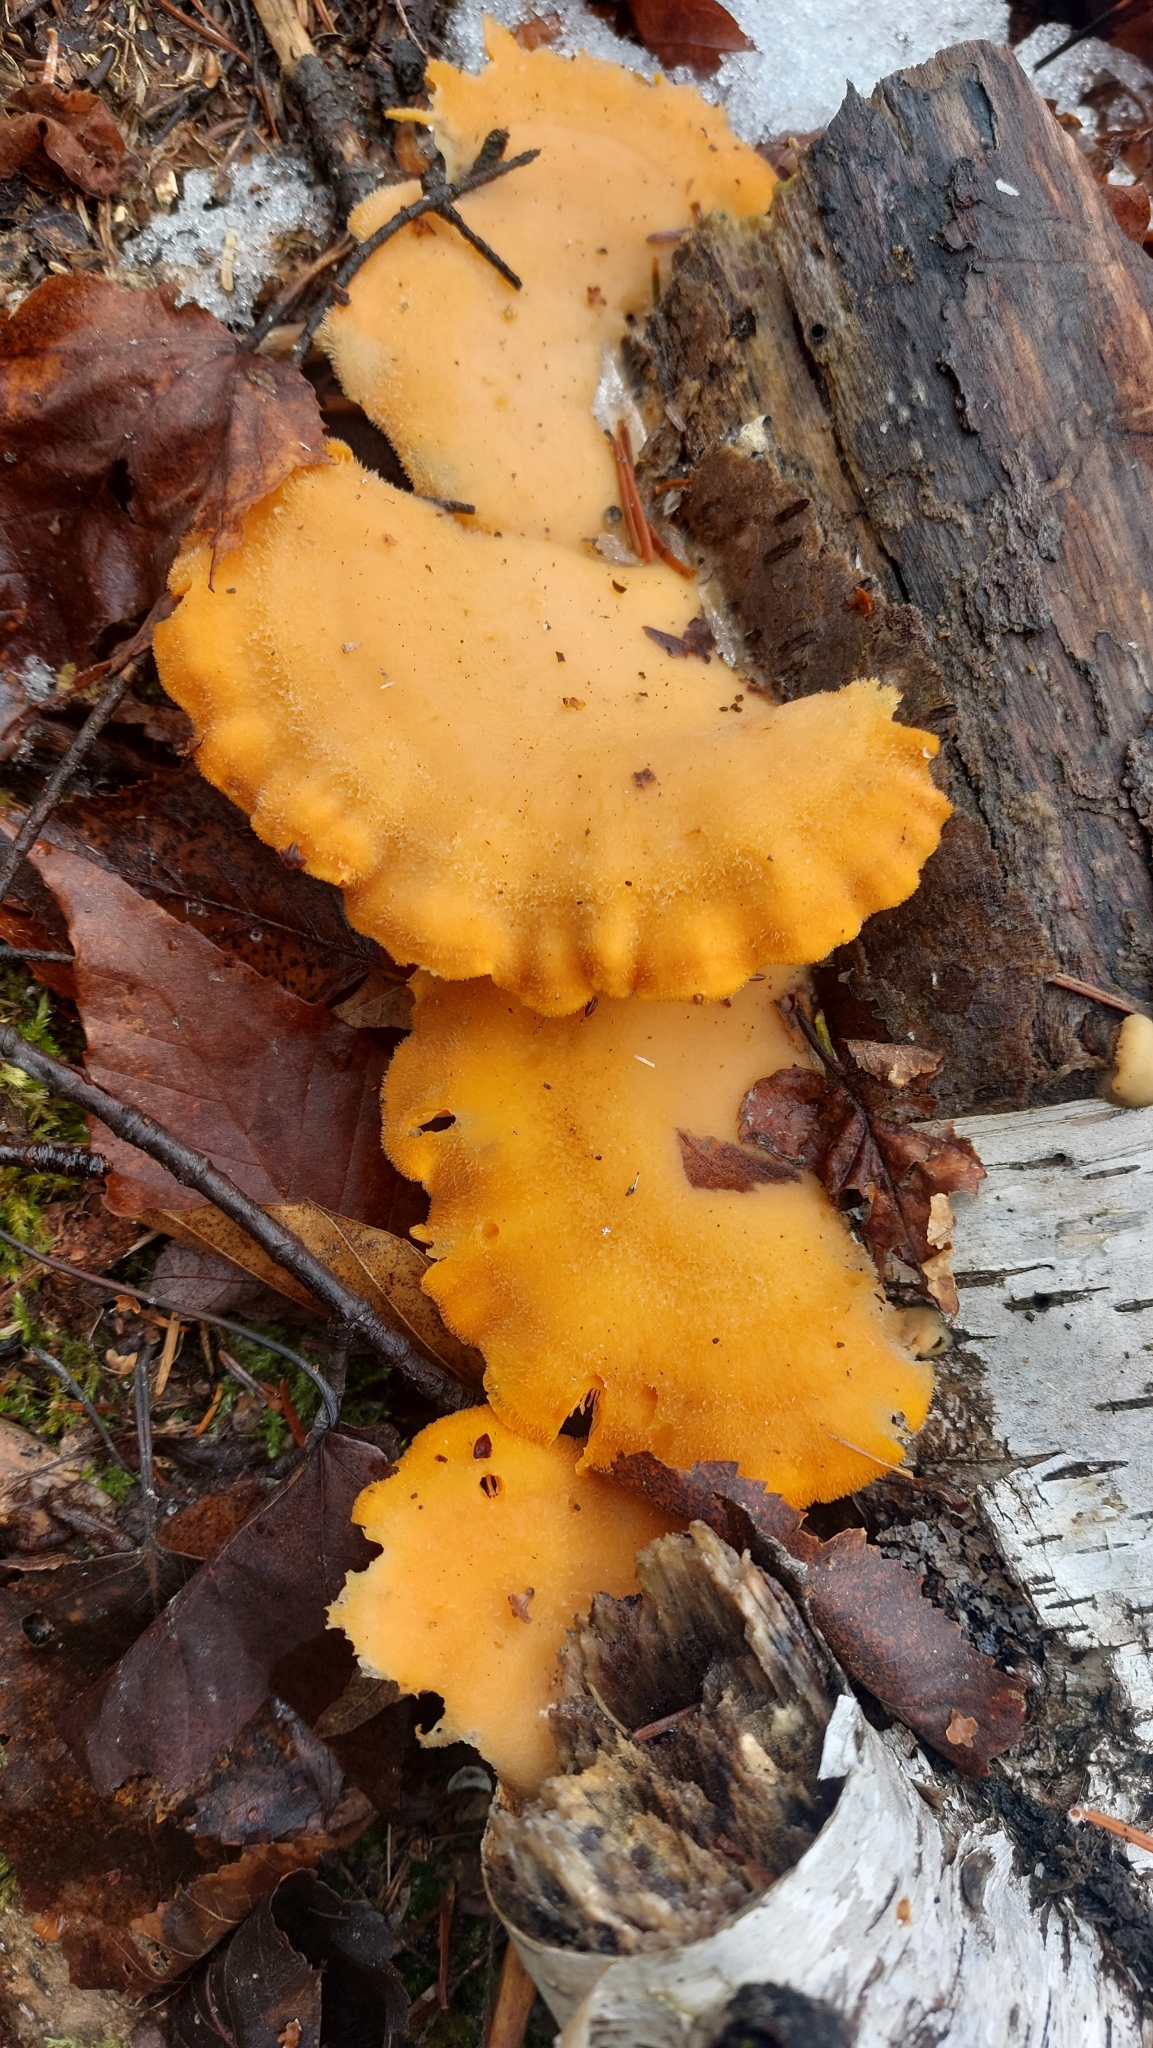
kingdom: Fungi
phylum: Basidiomycota
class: Agaricomycetes
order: Agaricales
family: Phyllotopsidaceae
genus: Phyllotopsis
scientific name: Phyllotopsis nidulans
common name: Orange mock oyster
